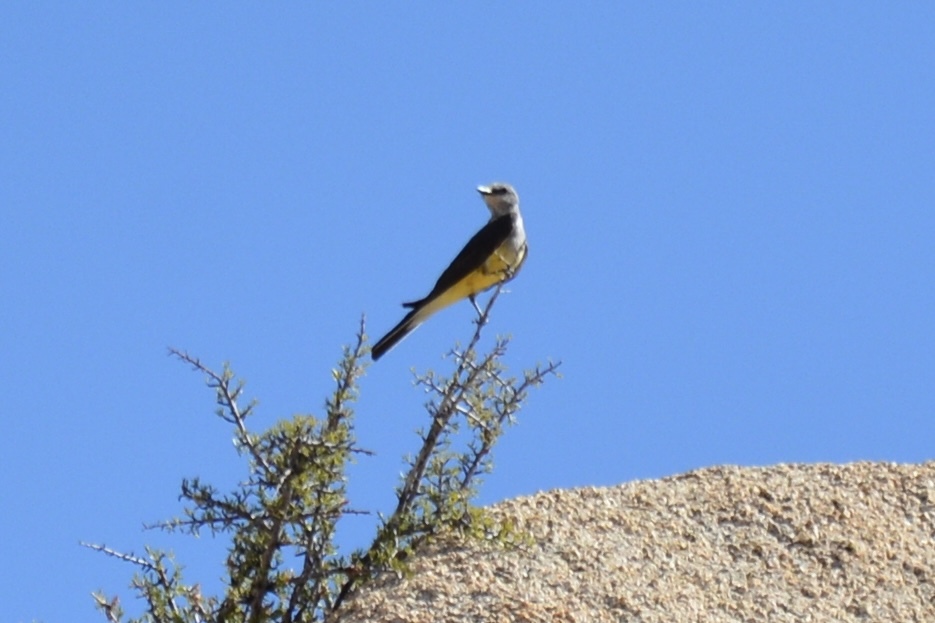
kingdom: Animalia
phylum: Chordata
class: Aves
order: Passeriformes
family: Tyrannidae
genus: Tyrannus
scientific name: Tyrannus verticalis
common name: Western kingbird
